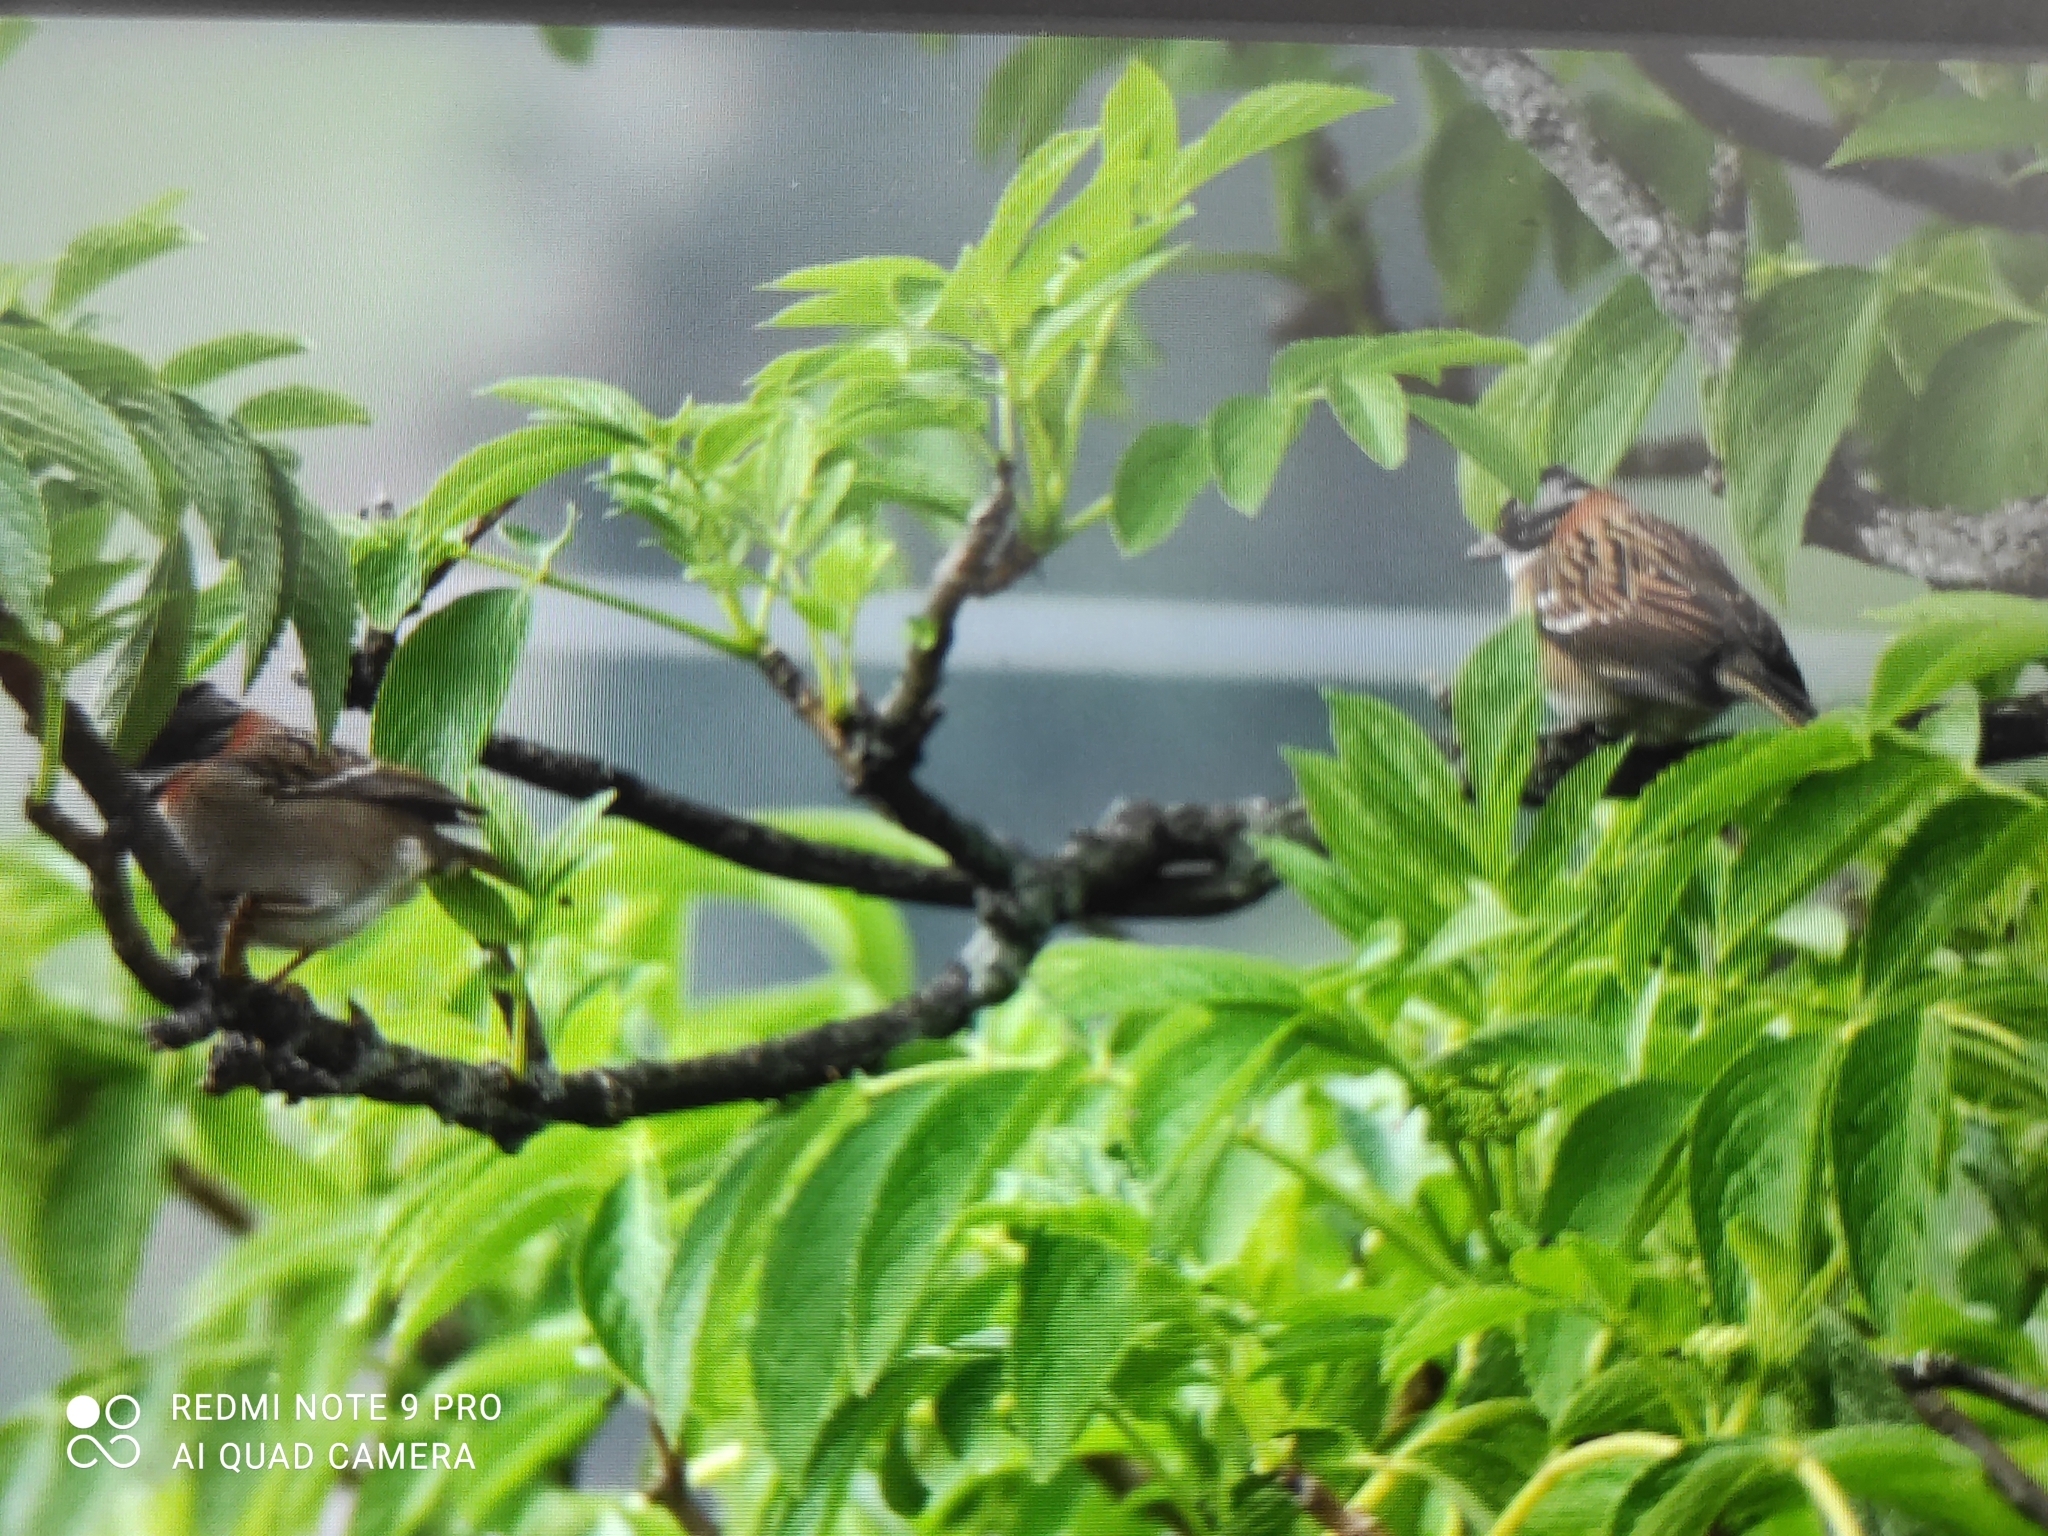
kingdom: Animalia
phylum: Chordata
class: Aves
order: Passeriformes
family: Passerellidae
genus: Zonotrichia
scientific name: Zonotrichia capensis
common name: Rufous-collared sparrow
